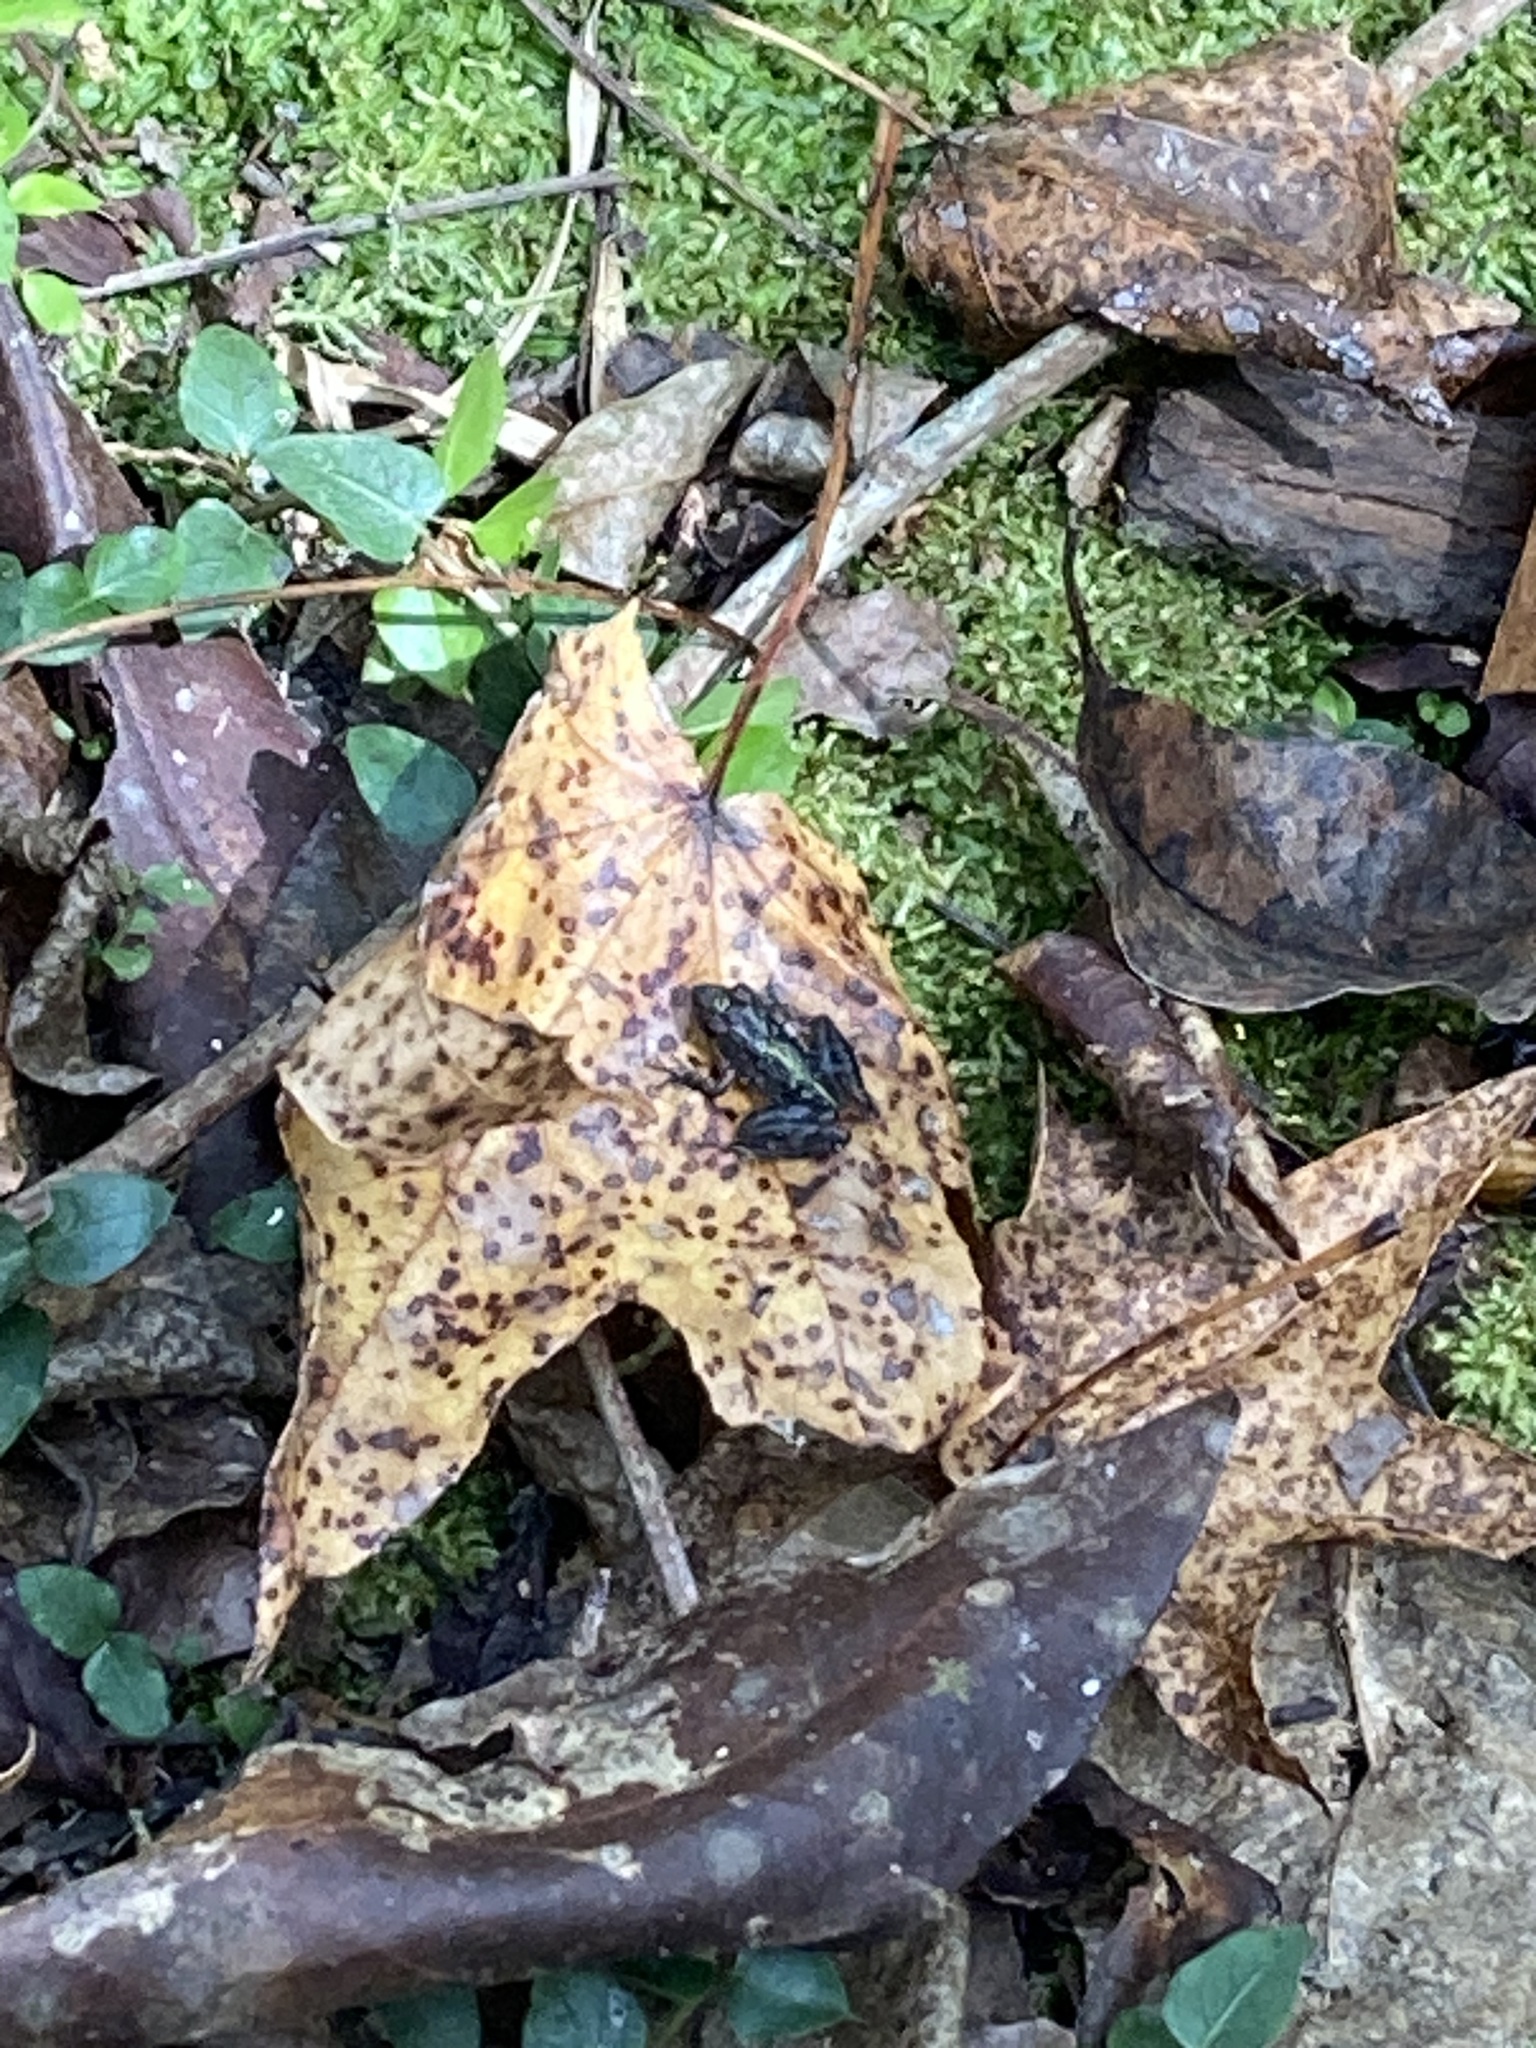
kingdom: Animalia
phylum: Chordata
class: Amphibia
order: Anura
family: Hylidae
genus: Acris
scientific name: Acris gryllus
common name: Southern cricket frog
